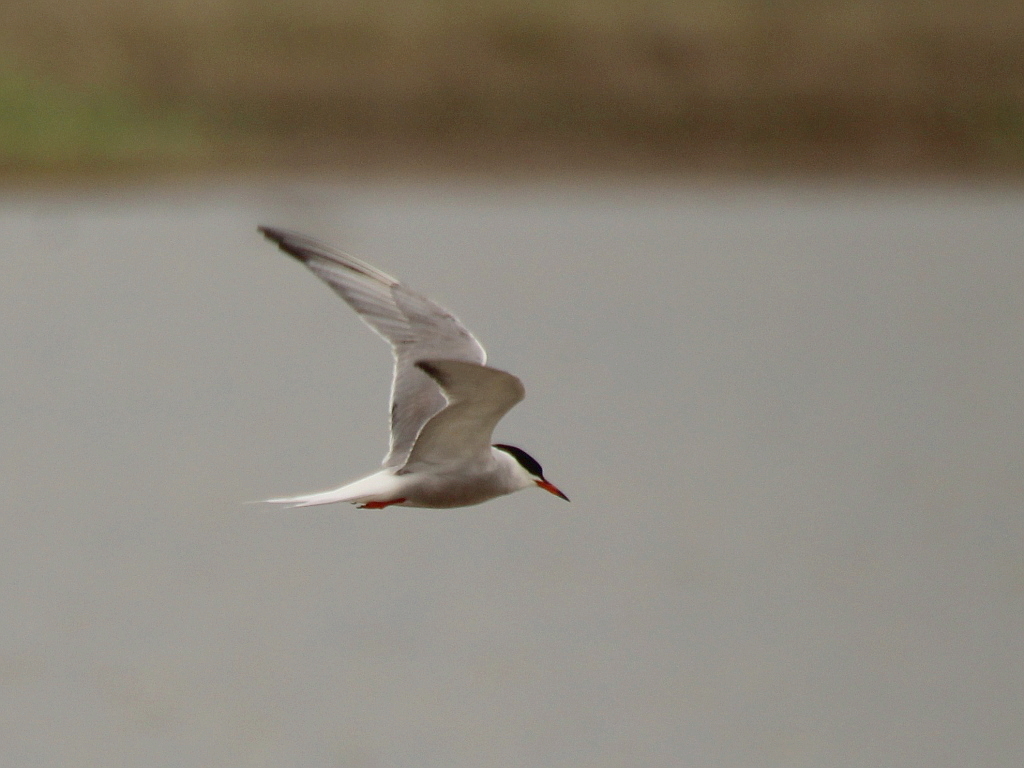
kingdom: Animalia
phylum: Chordata
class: Aves
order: Charadriiformes
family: Laridae
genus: Sterna
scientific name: Sterna hirundo
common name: Common tern
